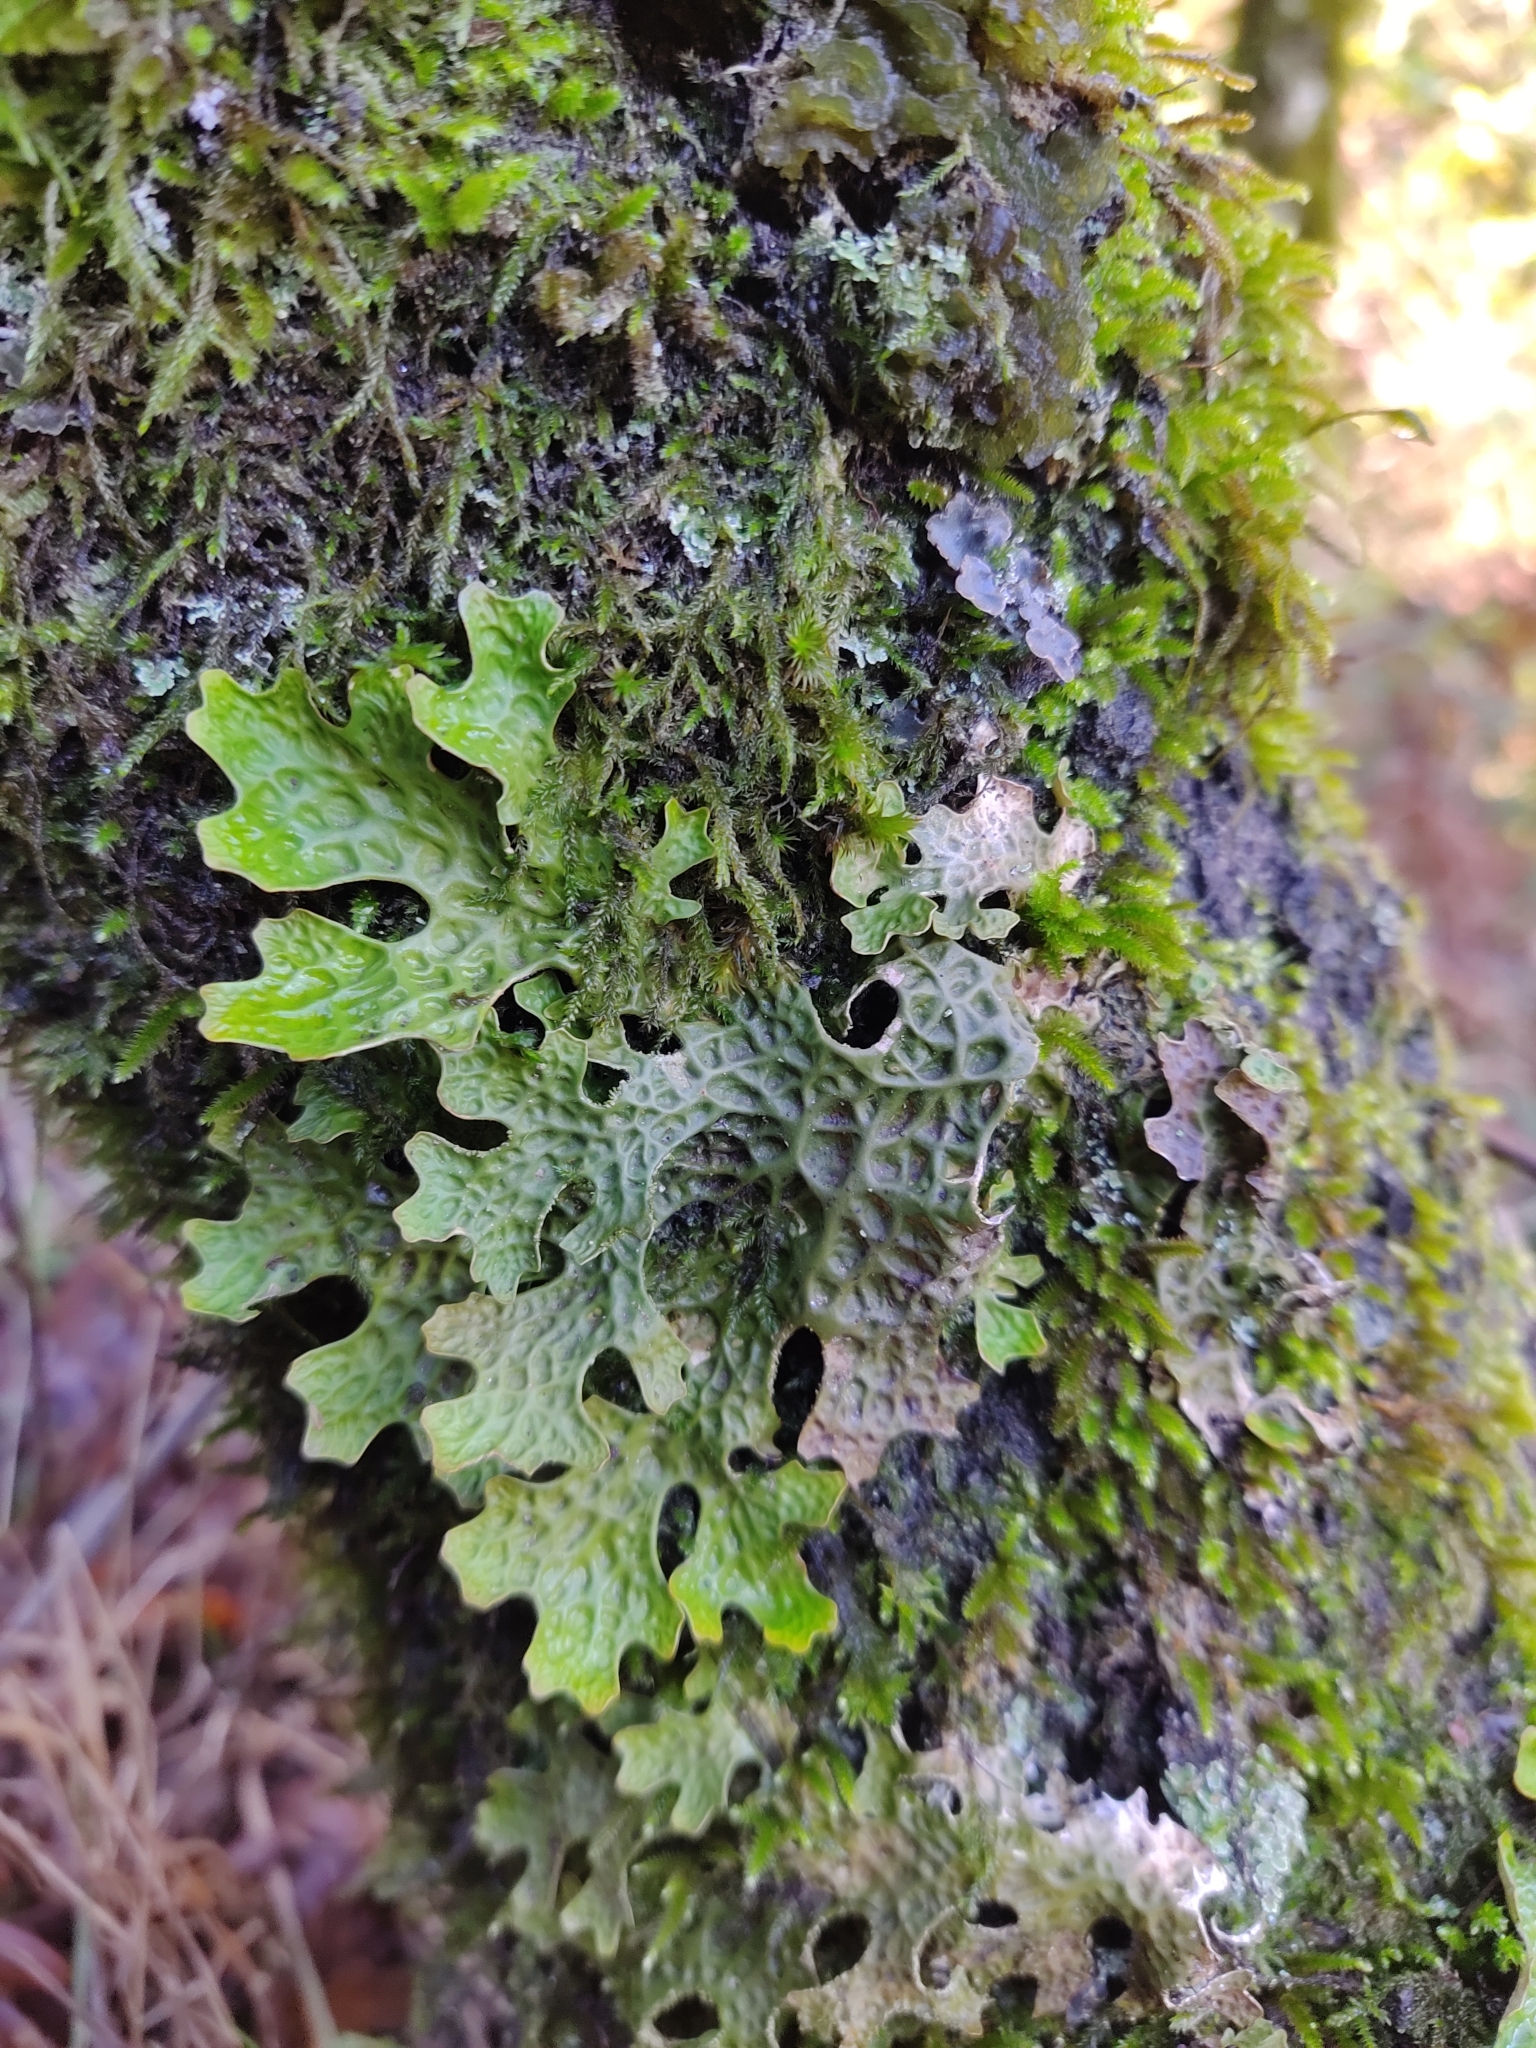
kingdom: Fungi
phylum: Ascomycota
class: Lecanoromycetes
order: Peltigerales
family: Lobariaceae
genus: Lobaria
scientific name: Lobaria pulmonaria
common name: Lungwort
